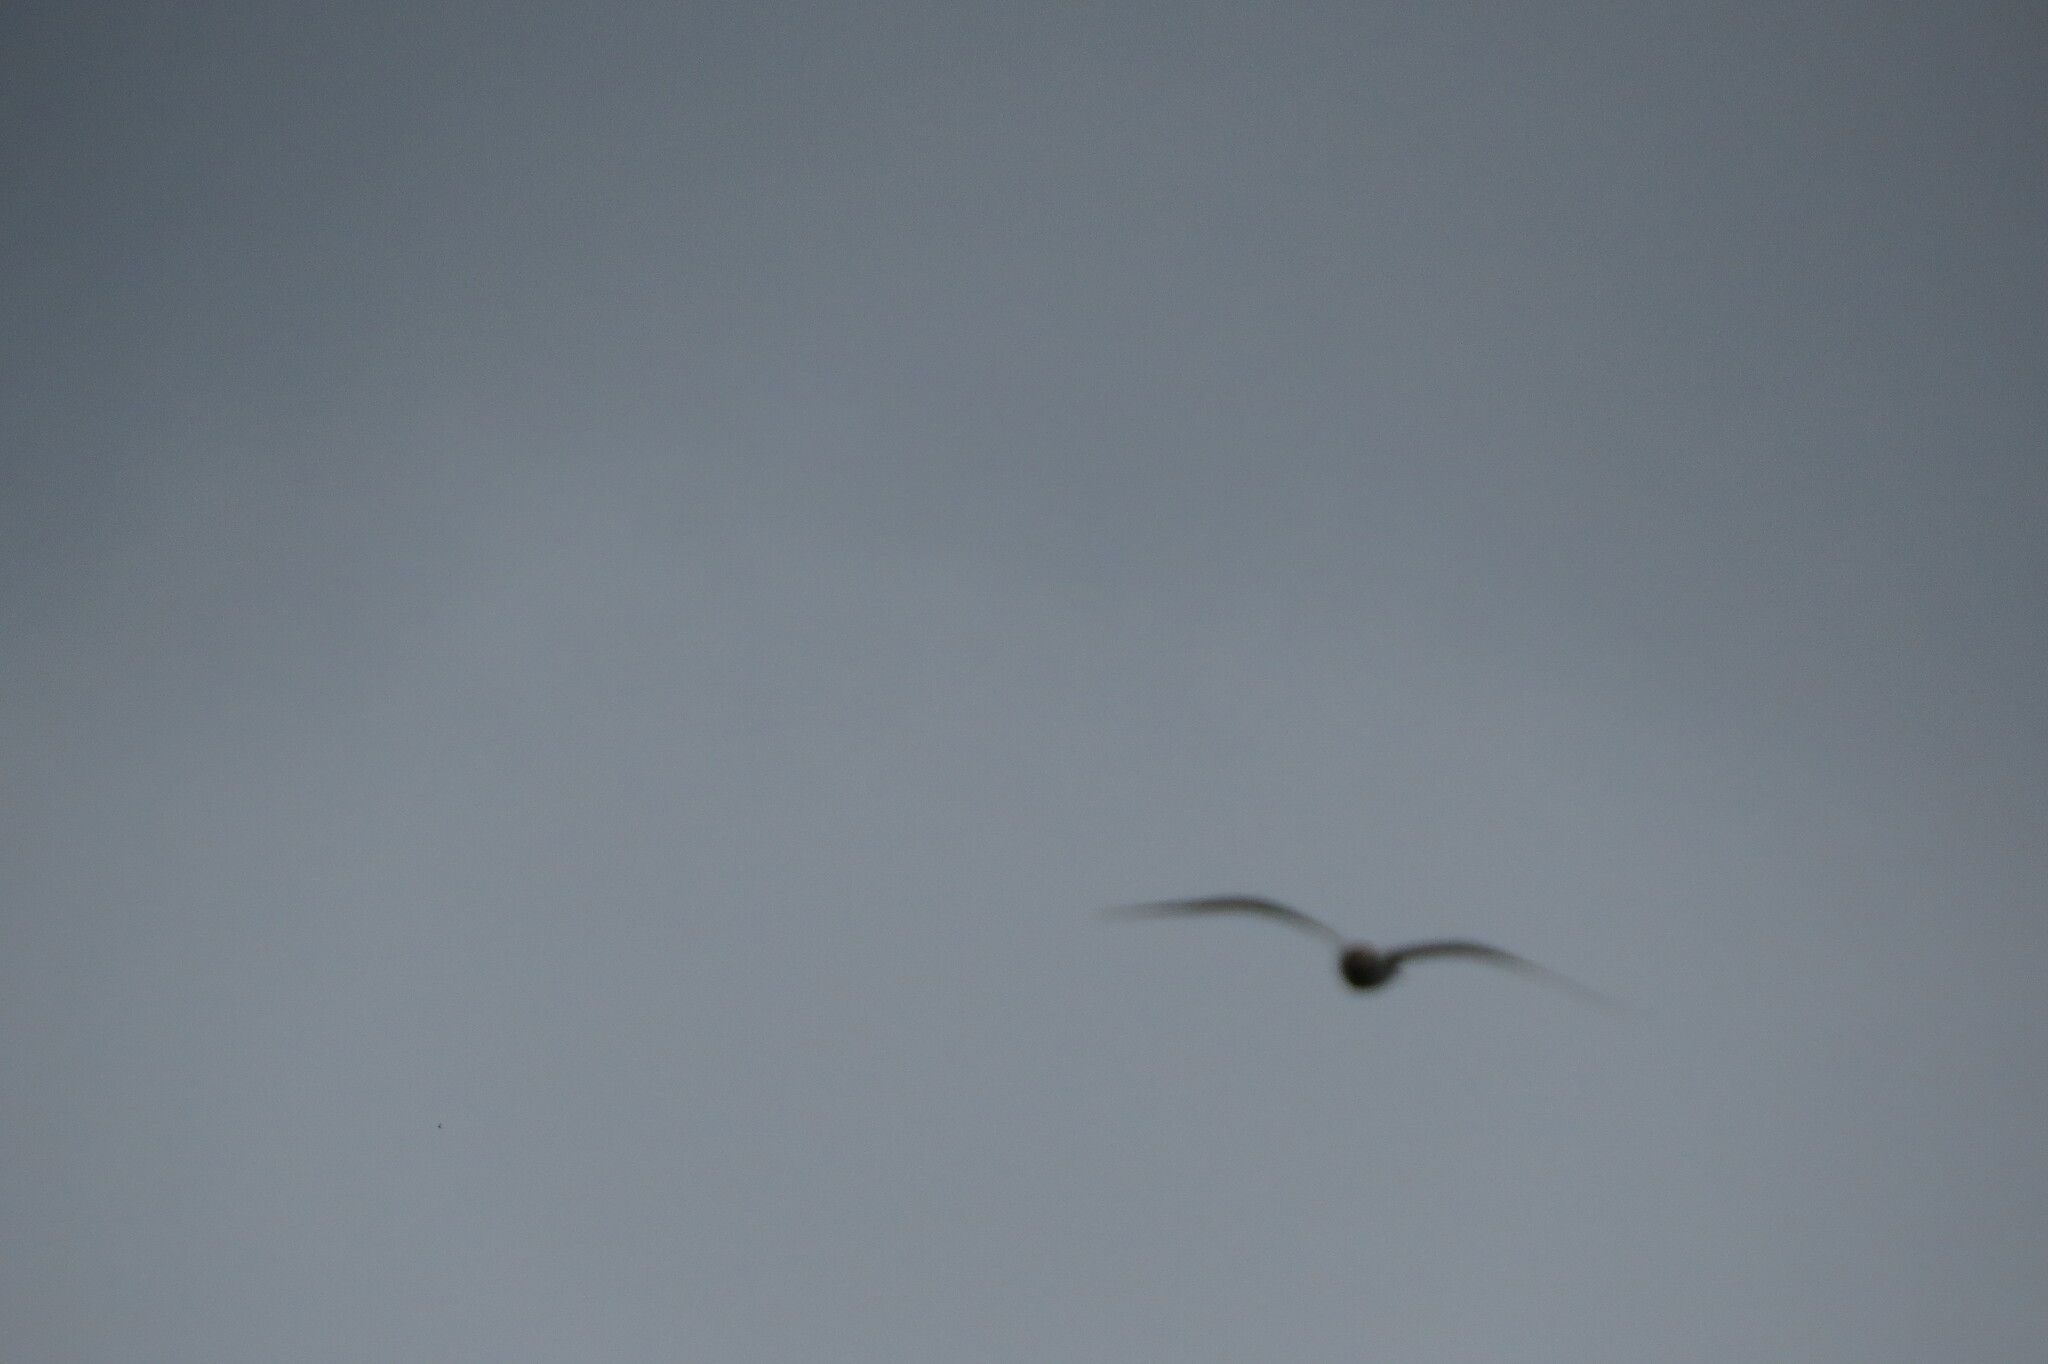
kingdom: Animalia
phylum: Chordata
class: Aves
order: Charadriiformes
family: Laridae
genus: Chroicocephalus
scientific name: Chroicocephalus ridibundus
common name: Black-headed gull
